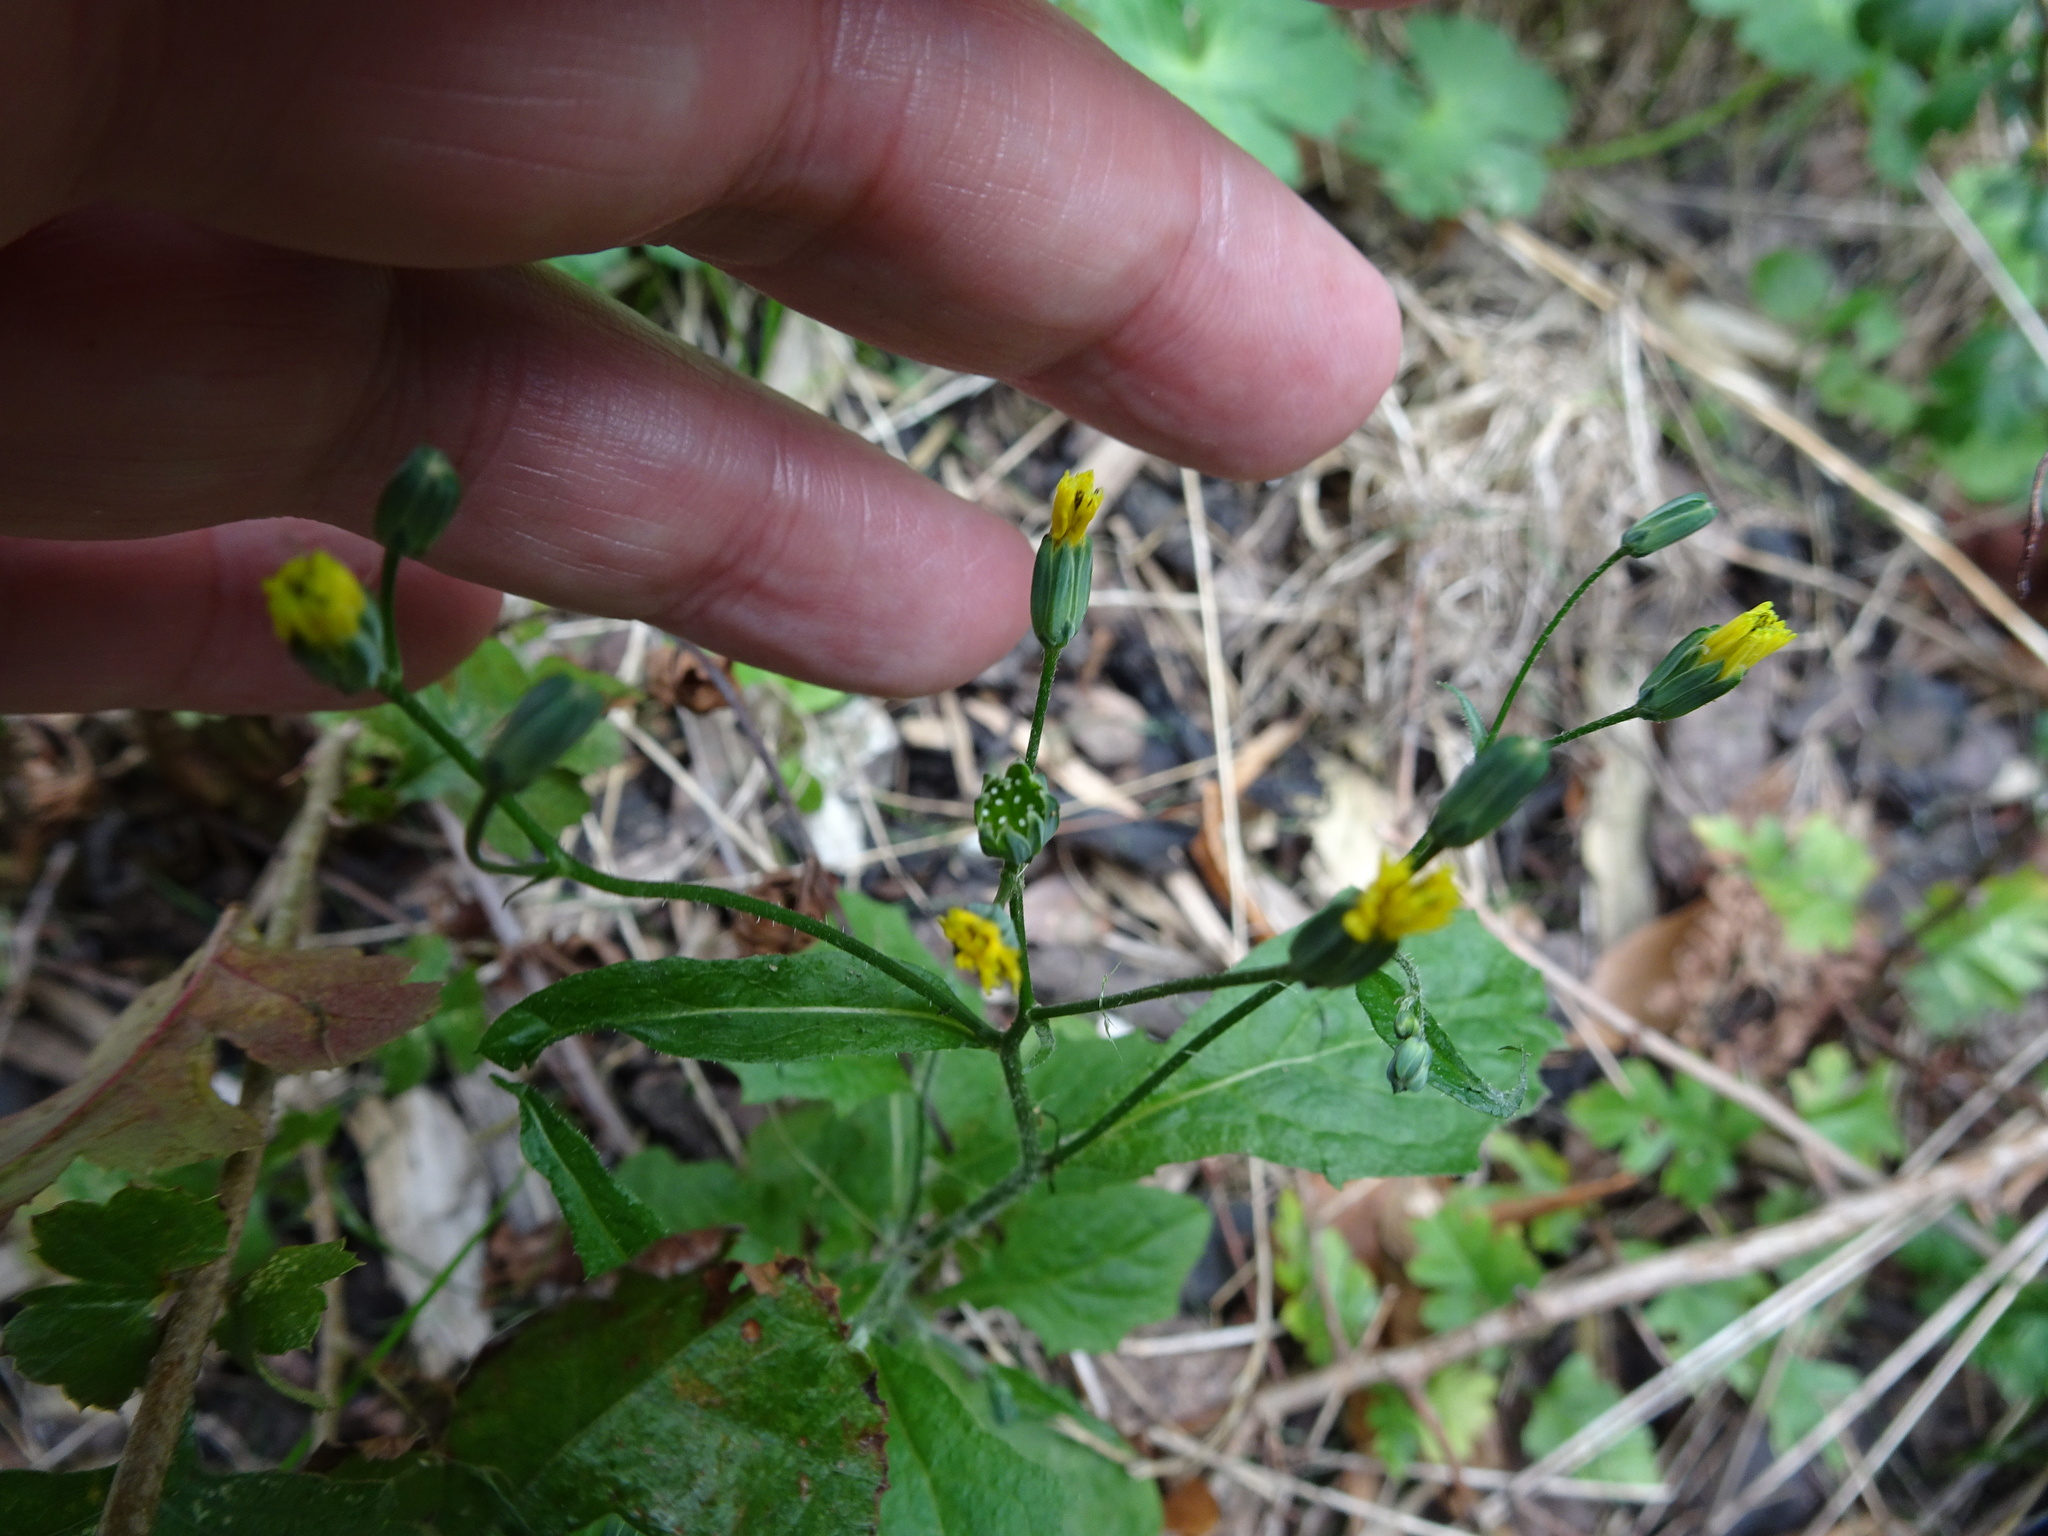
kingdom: Plantae
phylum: Tracheophyta
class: Magnoliopsida
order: Asterales
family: Asteraceae
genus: Lapsana
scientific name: Lapsana communis
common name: Nipplewort
